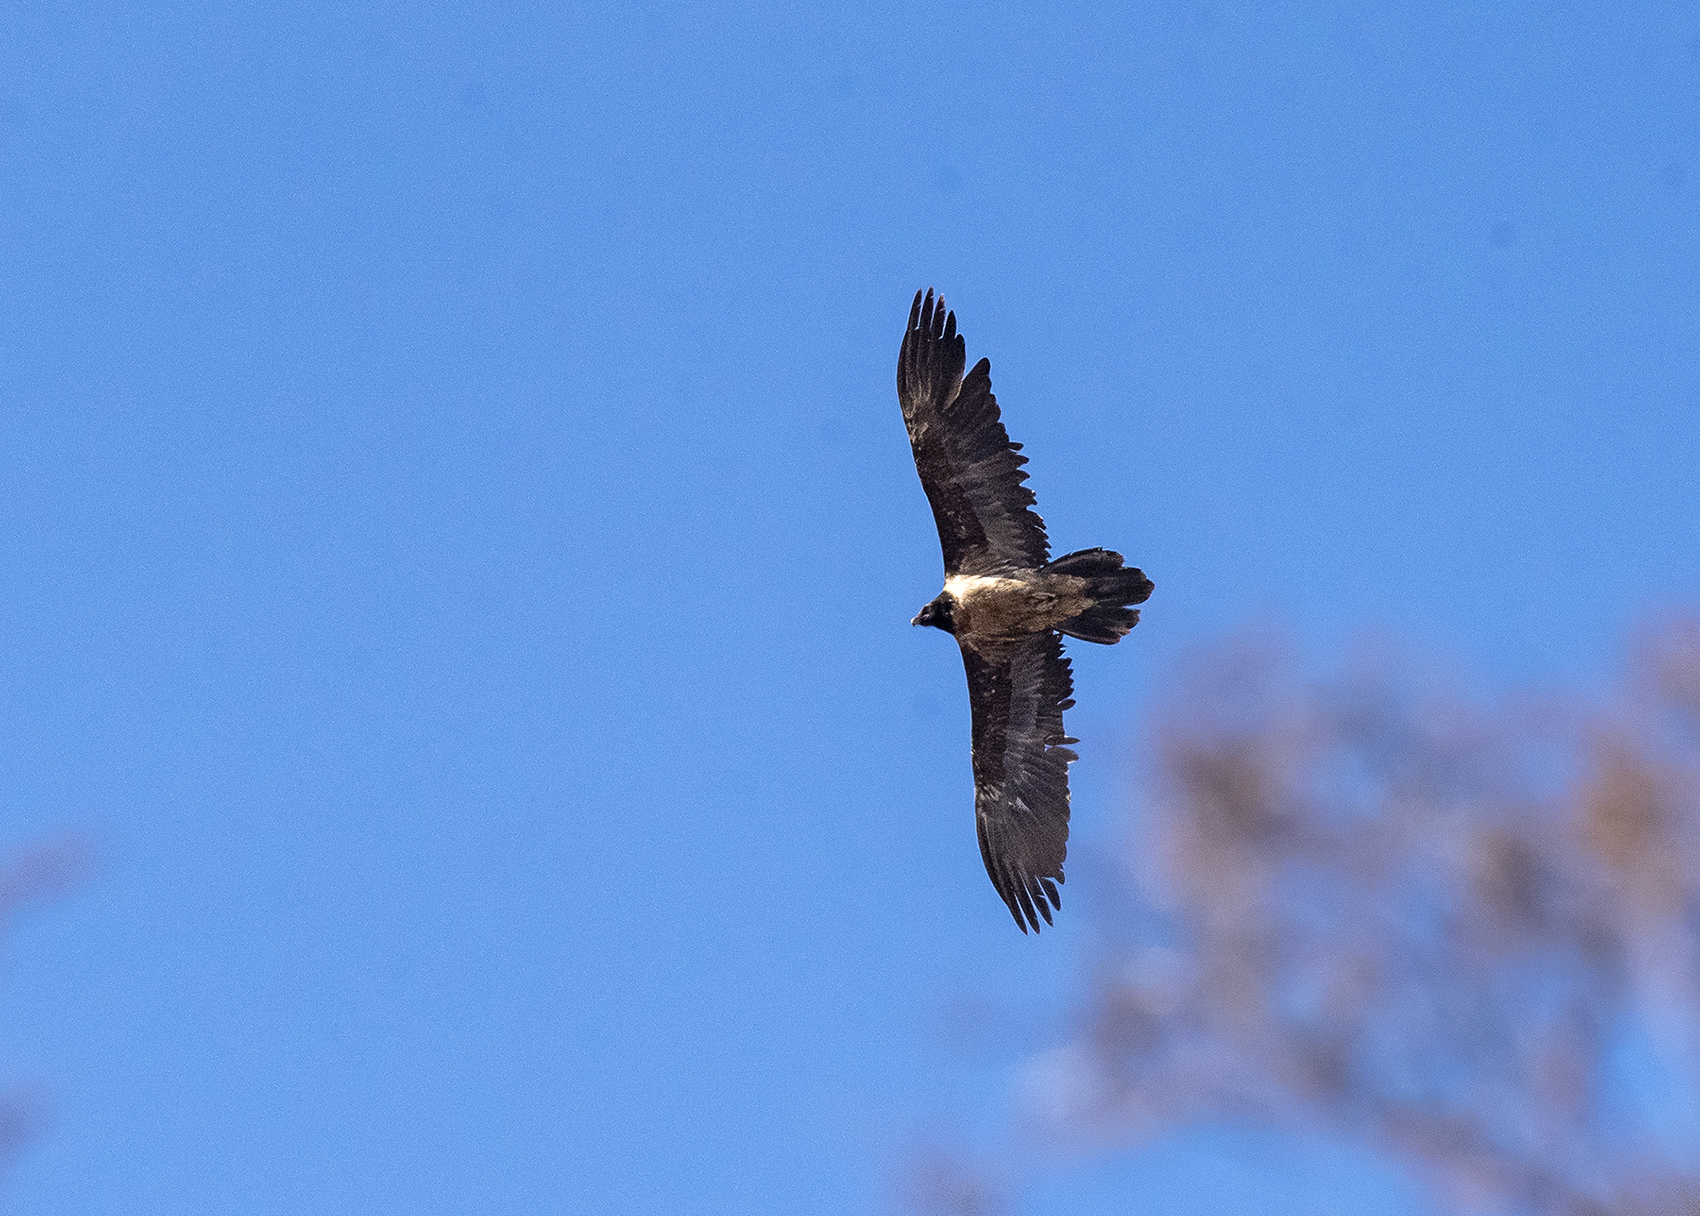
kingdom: Animalia
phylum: Chordata
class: Aves
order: Accipitriformes
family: Accipitridae
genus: Gypaetus
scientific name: Gypaetus barbatus
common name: Bearded vulture
